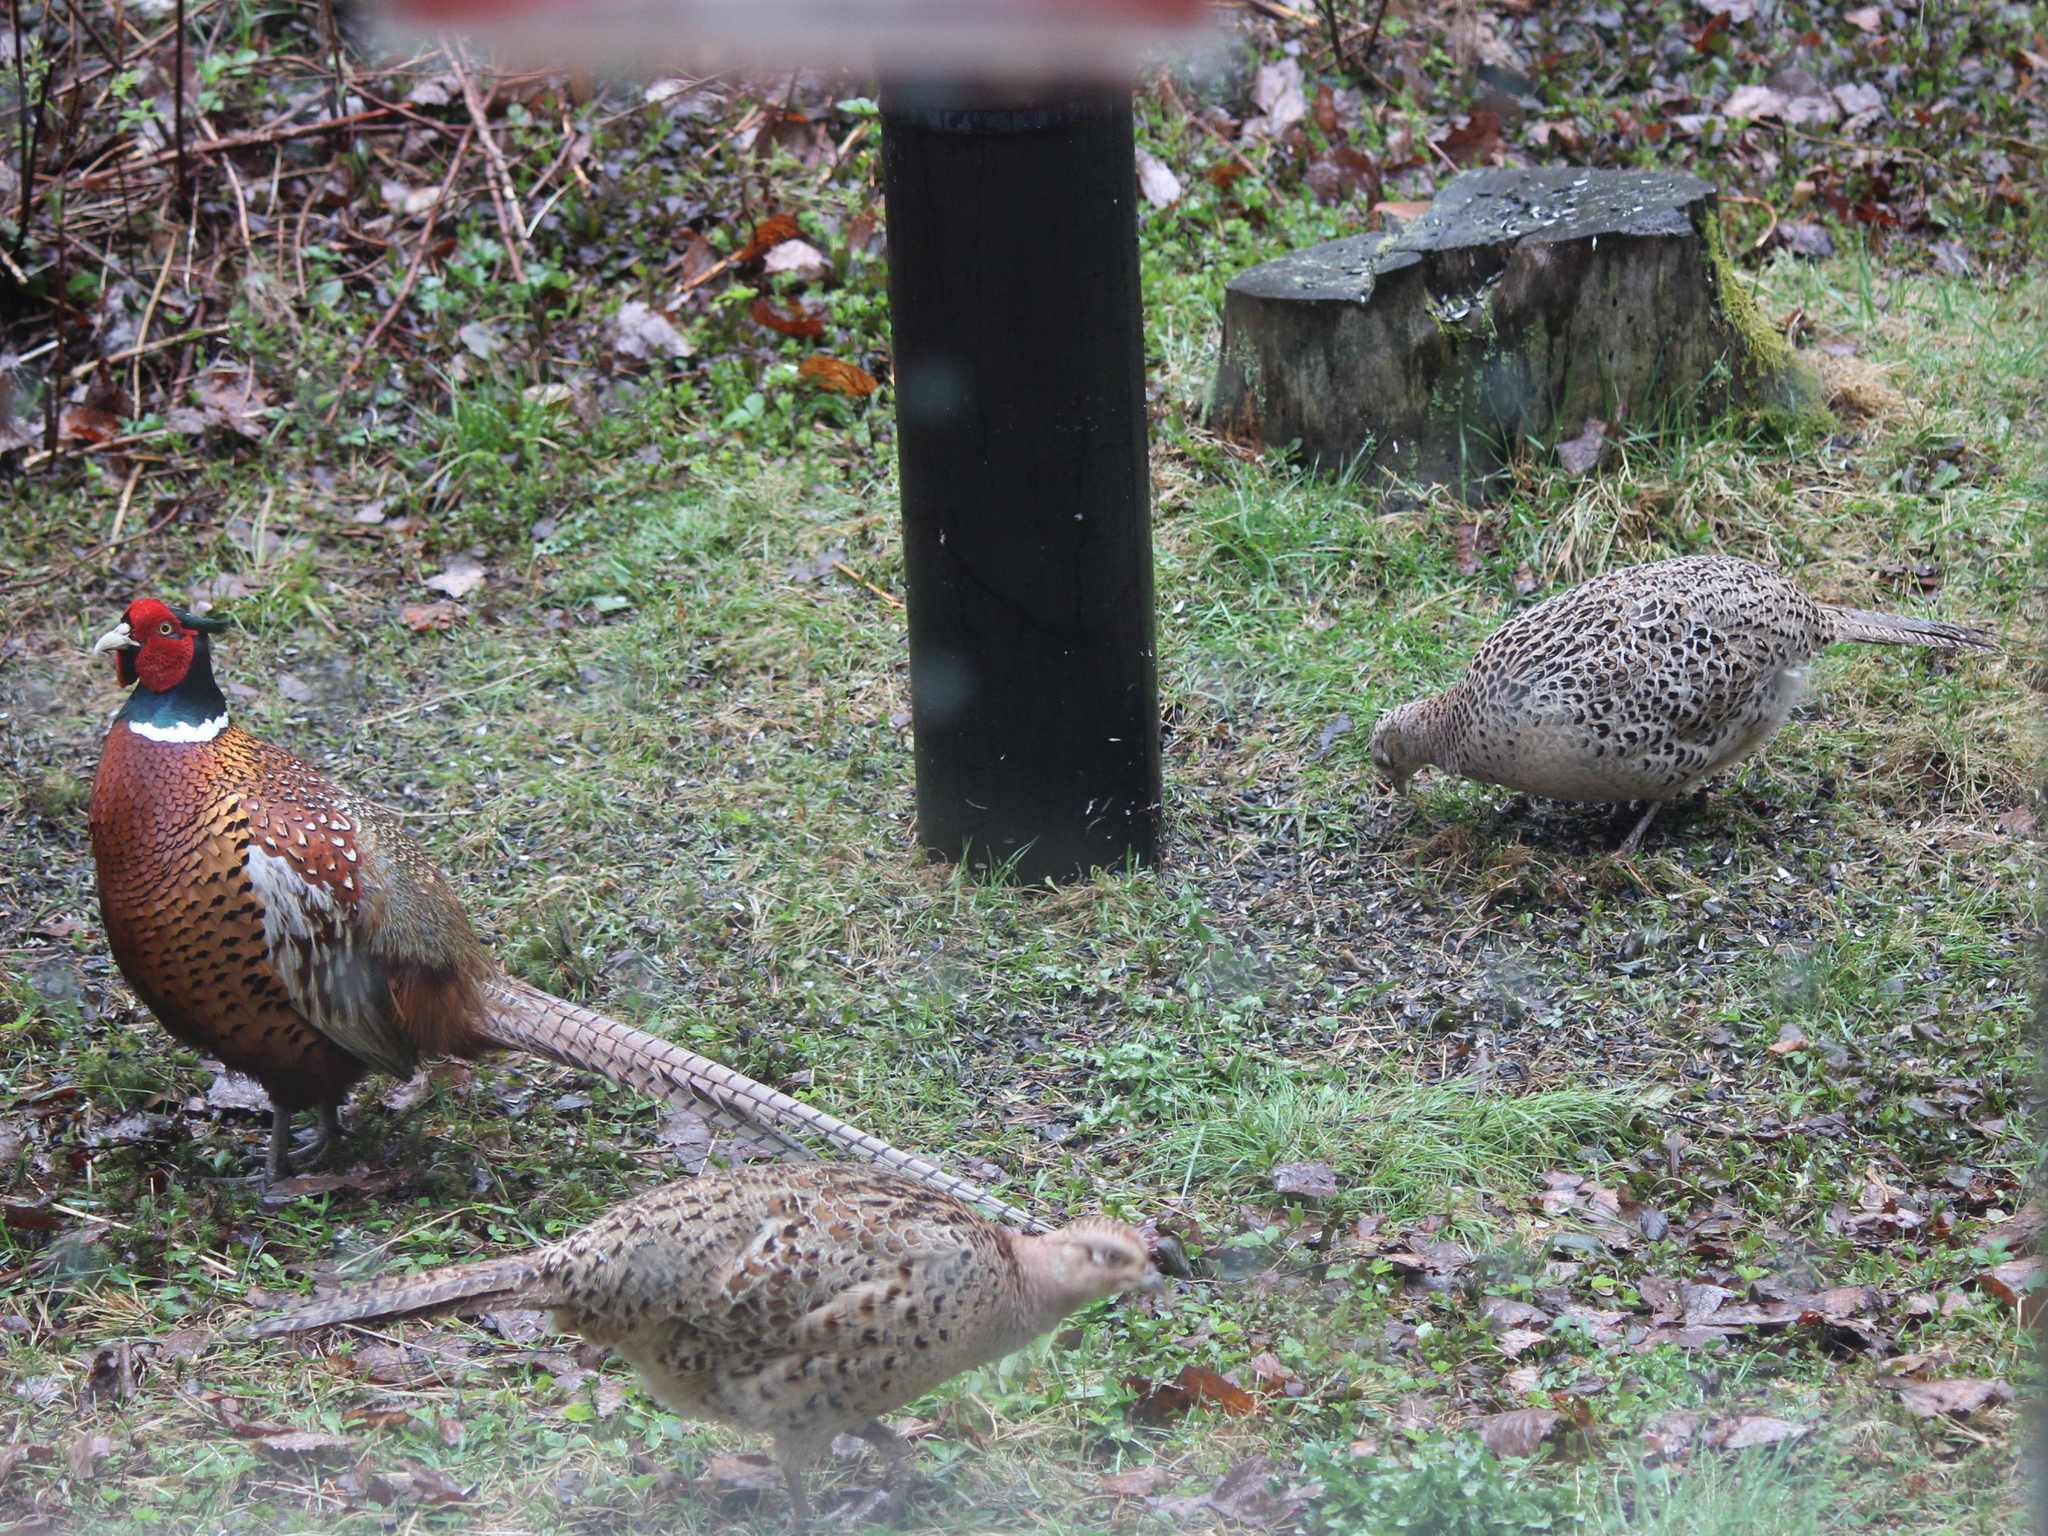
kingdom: Animalia
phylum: Chordata
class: Aves
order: Galliformes
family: Phasianidae
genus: Phasianus
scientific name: Phasianus colchicus
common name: Common pheasant
